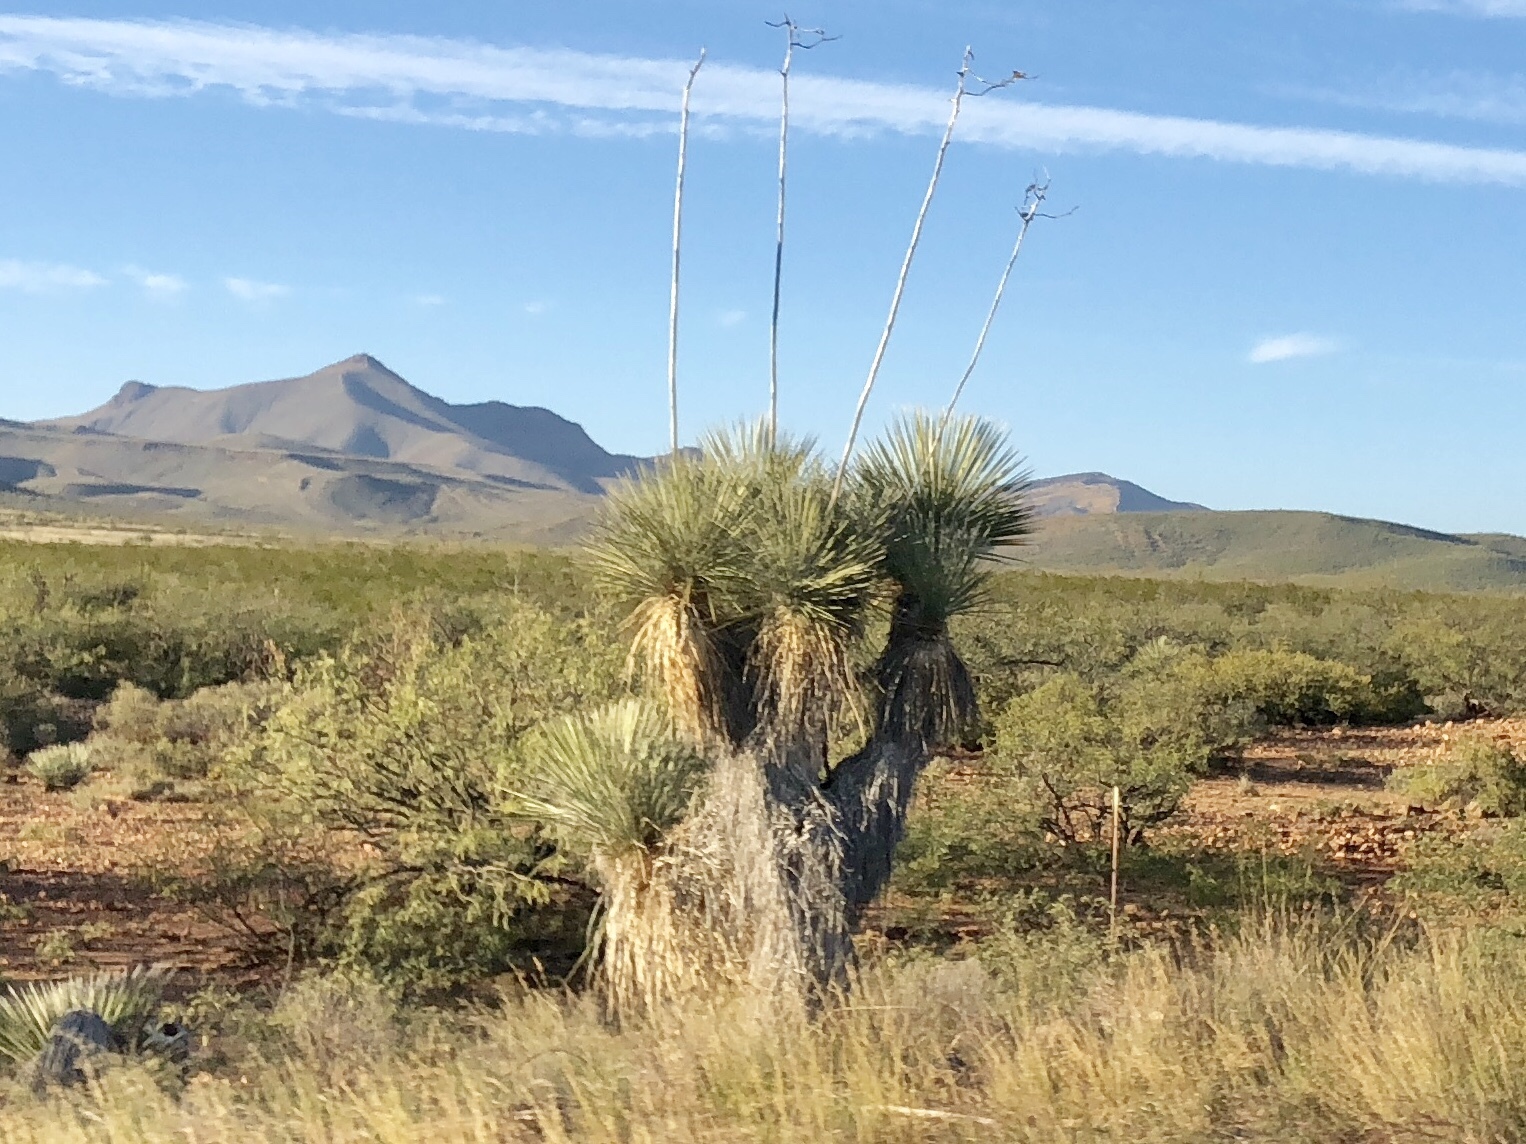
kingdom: Plantae
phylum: Tracheophyta
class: Liliopsida
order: Asparagales
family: Asparagaceae
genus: Yucca
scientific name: Yucca elata
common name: Palmella
